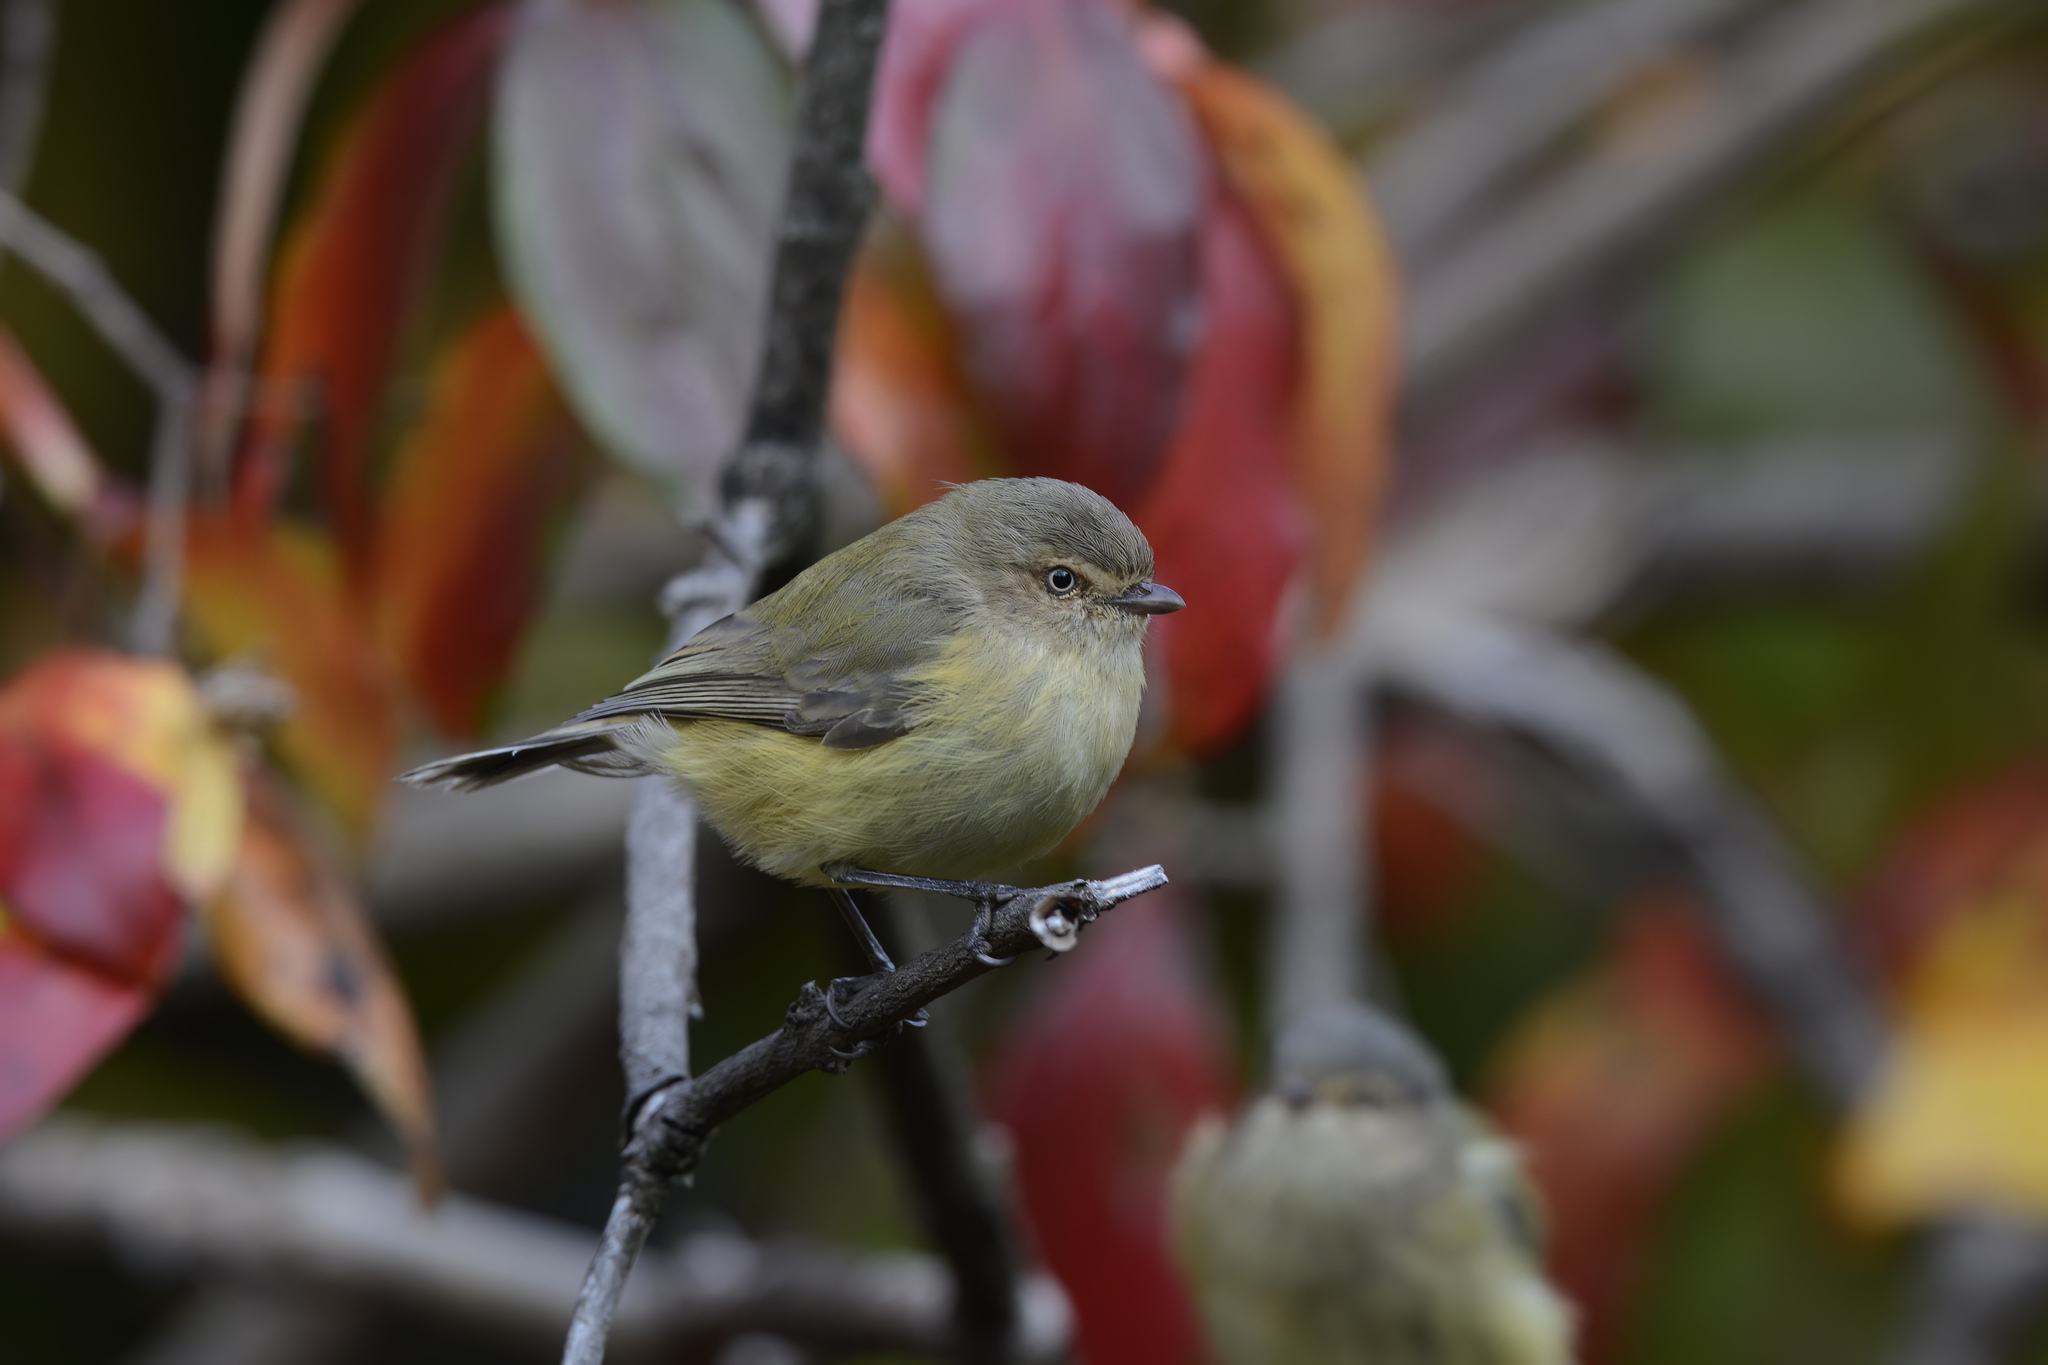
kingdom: Animalia
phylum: Chordata
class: Aves
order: Passeriformes
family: Acanthizidae
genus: Smicrornis
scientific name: Smicrornis brevirostris
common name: Weebill
